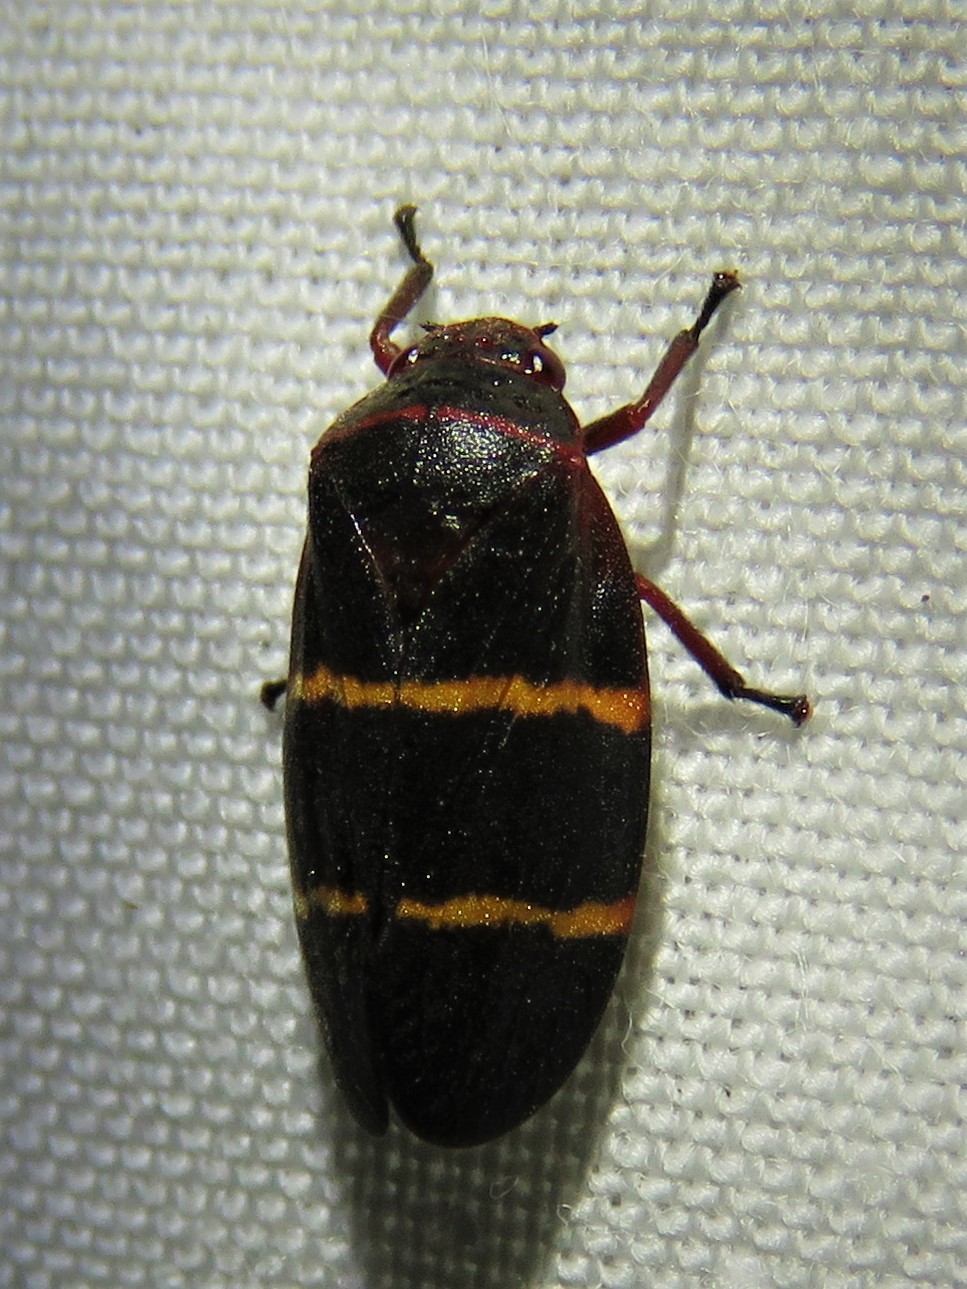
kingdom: Animalia
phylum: Arthropoda
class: Insecta
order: Hemiptera
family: Cercopidae
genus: Prosapia
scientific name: Prosapia bicincta
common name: Twolined spittlebug
